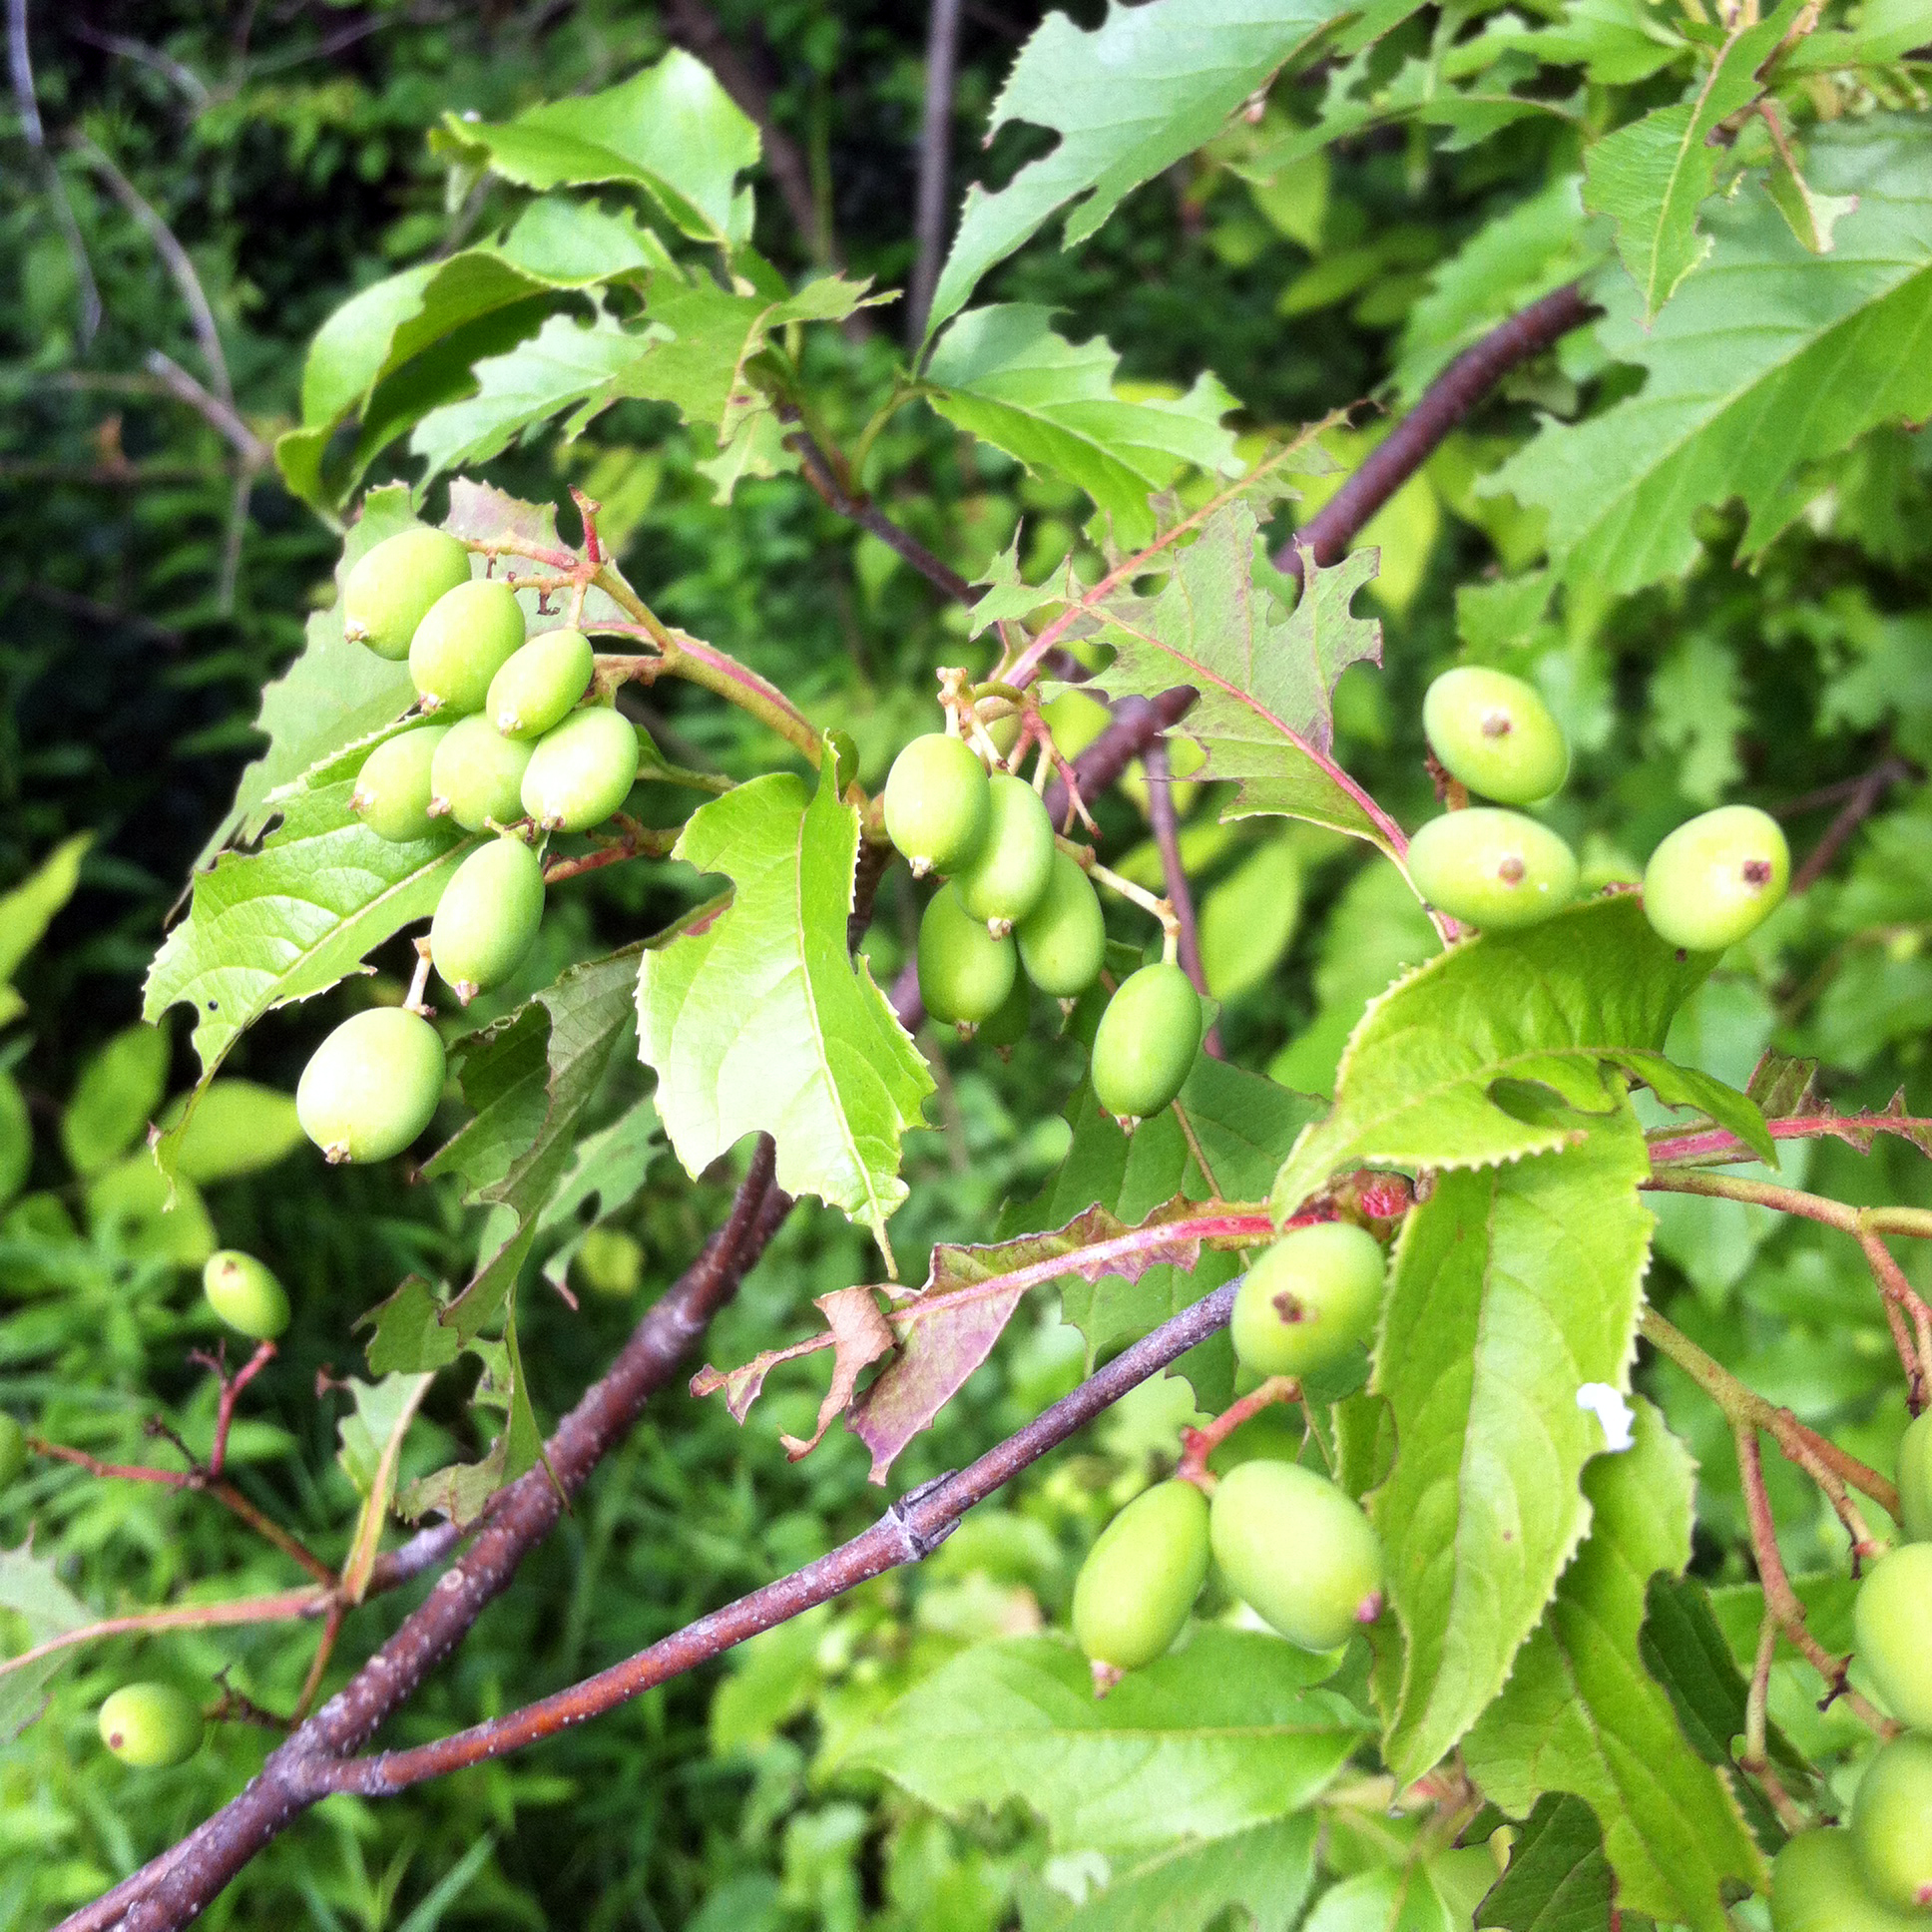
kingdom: Plantae
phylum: Tracheophyta
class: Magnoliopsida
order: Dipsacales
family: Viburnaceae
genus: Viburnum
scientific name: Viburnum lentago
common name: Black haw
